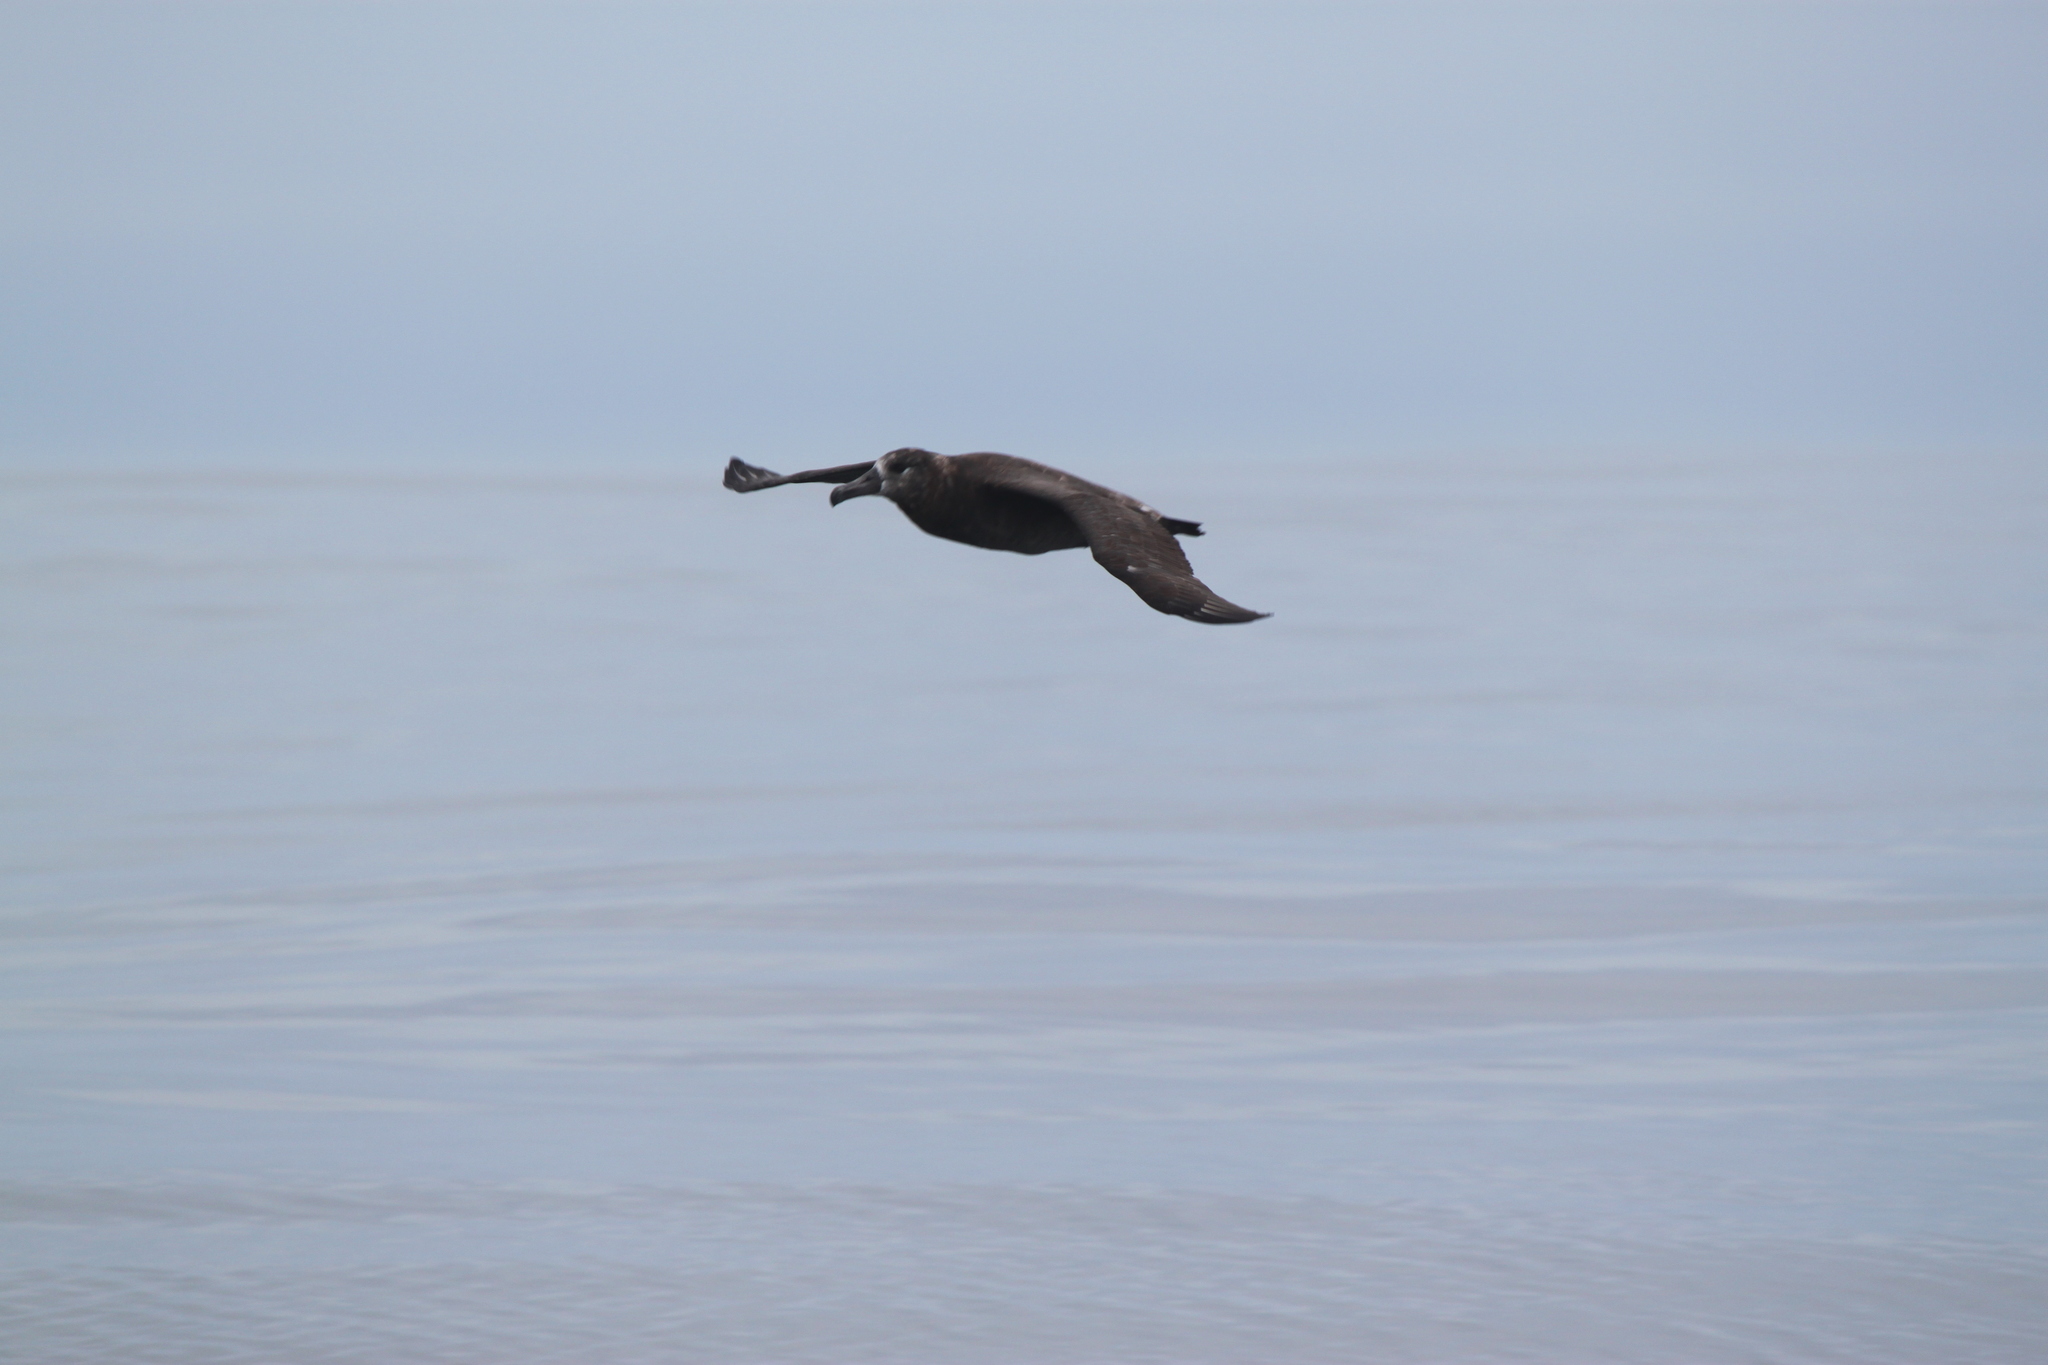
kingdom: Animalia
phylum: Chordata
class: Aves
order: Procellariiformes
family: Diomedeidae
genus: Phoebastria
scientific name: Phoebastria nigripes
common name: Black-footed albatross
